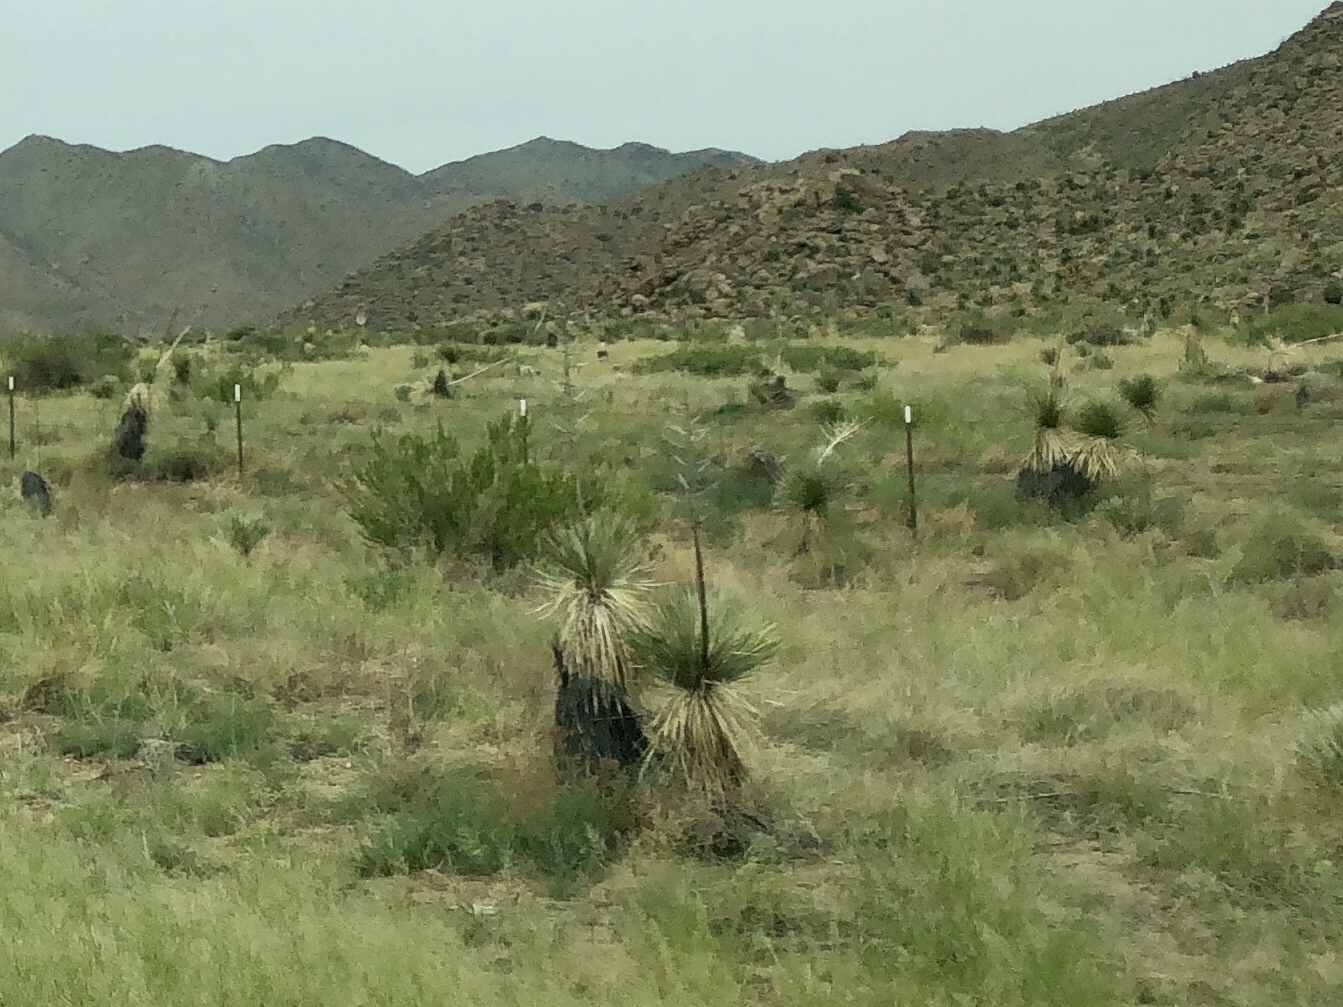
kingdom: Plantae
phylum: Tracheophyta
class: Liliopsida
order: Asparagales
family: Asparagaceae
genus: Yucca
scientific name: Yucca elata
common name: Palmella
